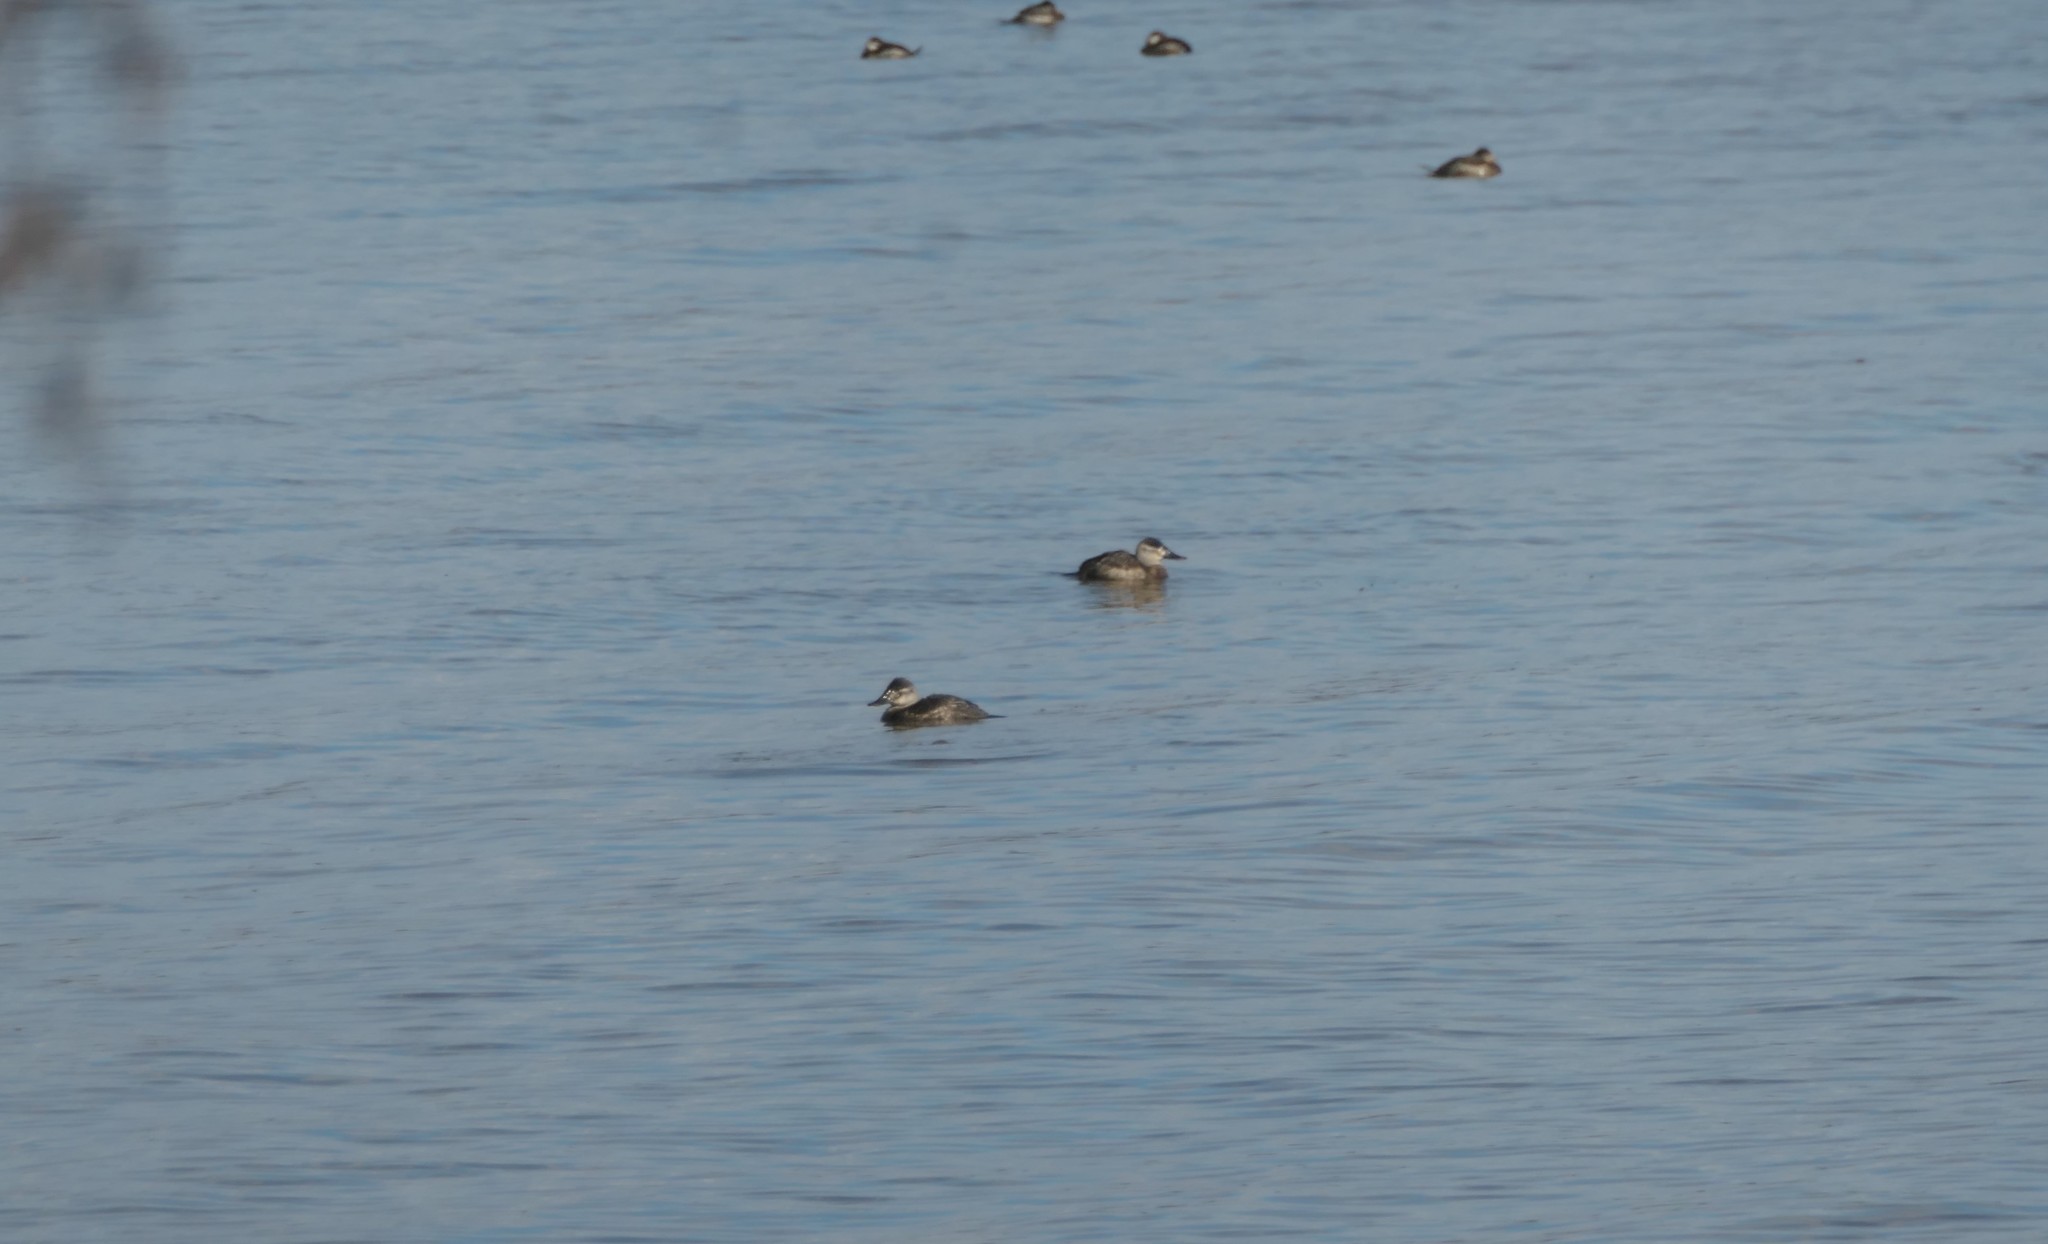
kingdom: Animalia
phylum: Chordata
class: Aves
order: Anseriformes
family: Anatidae
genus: Oxyura
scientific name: Oxyura jamaicensis
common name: Ruddy duck
